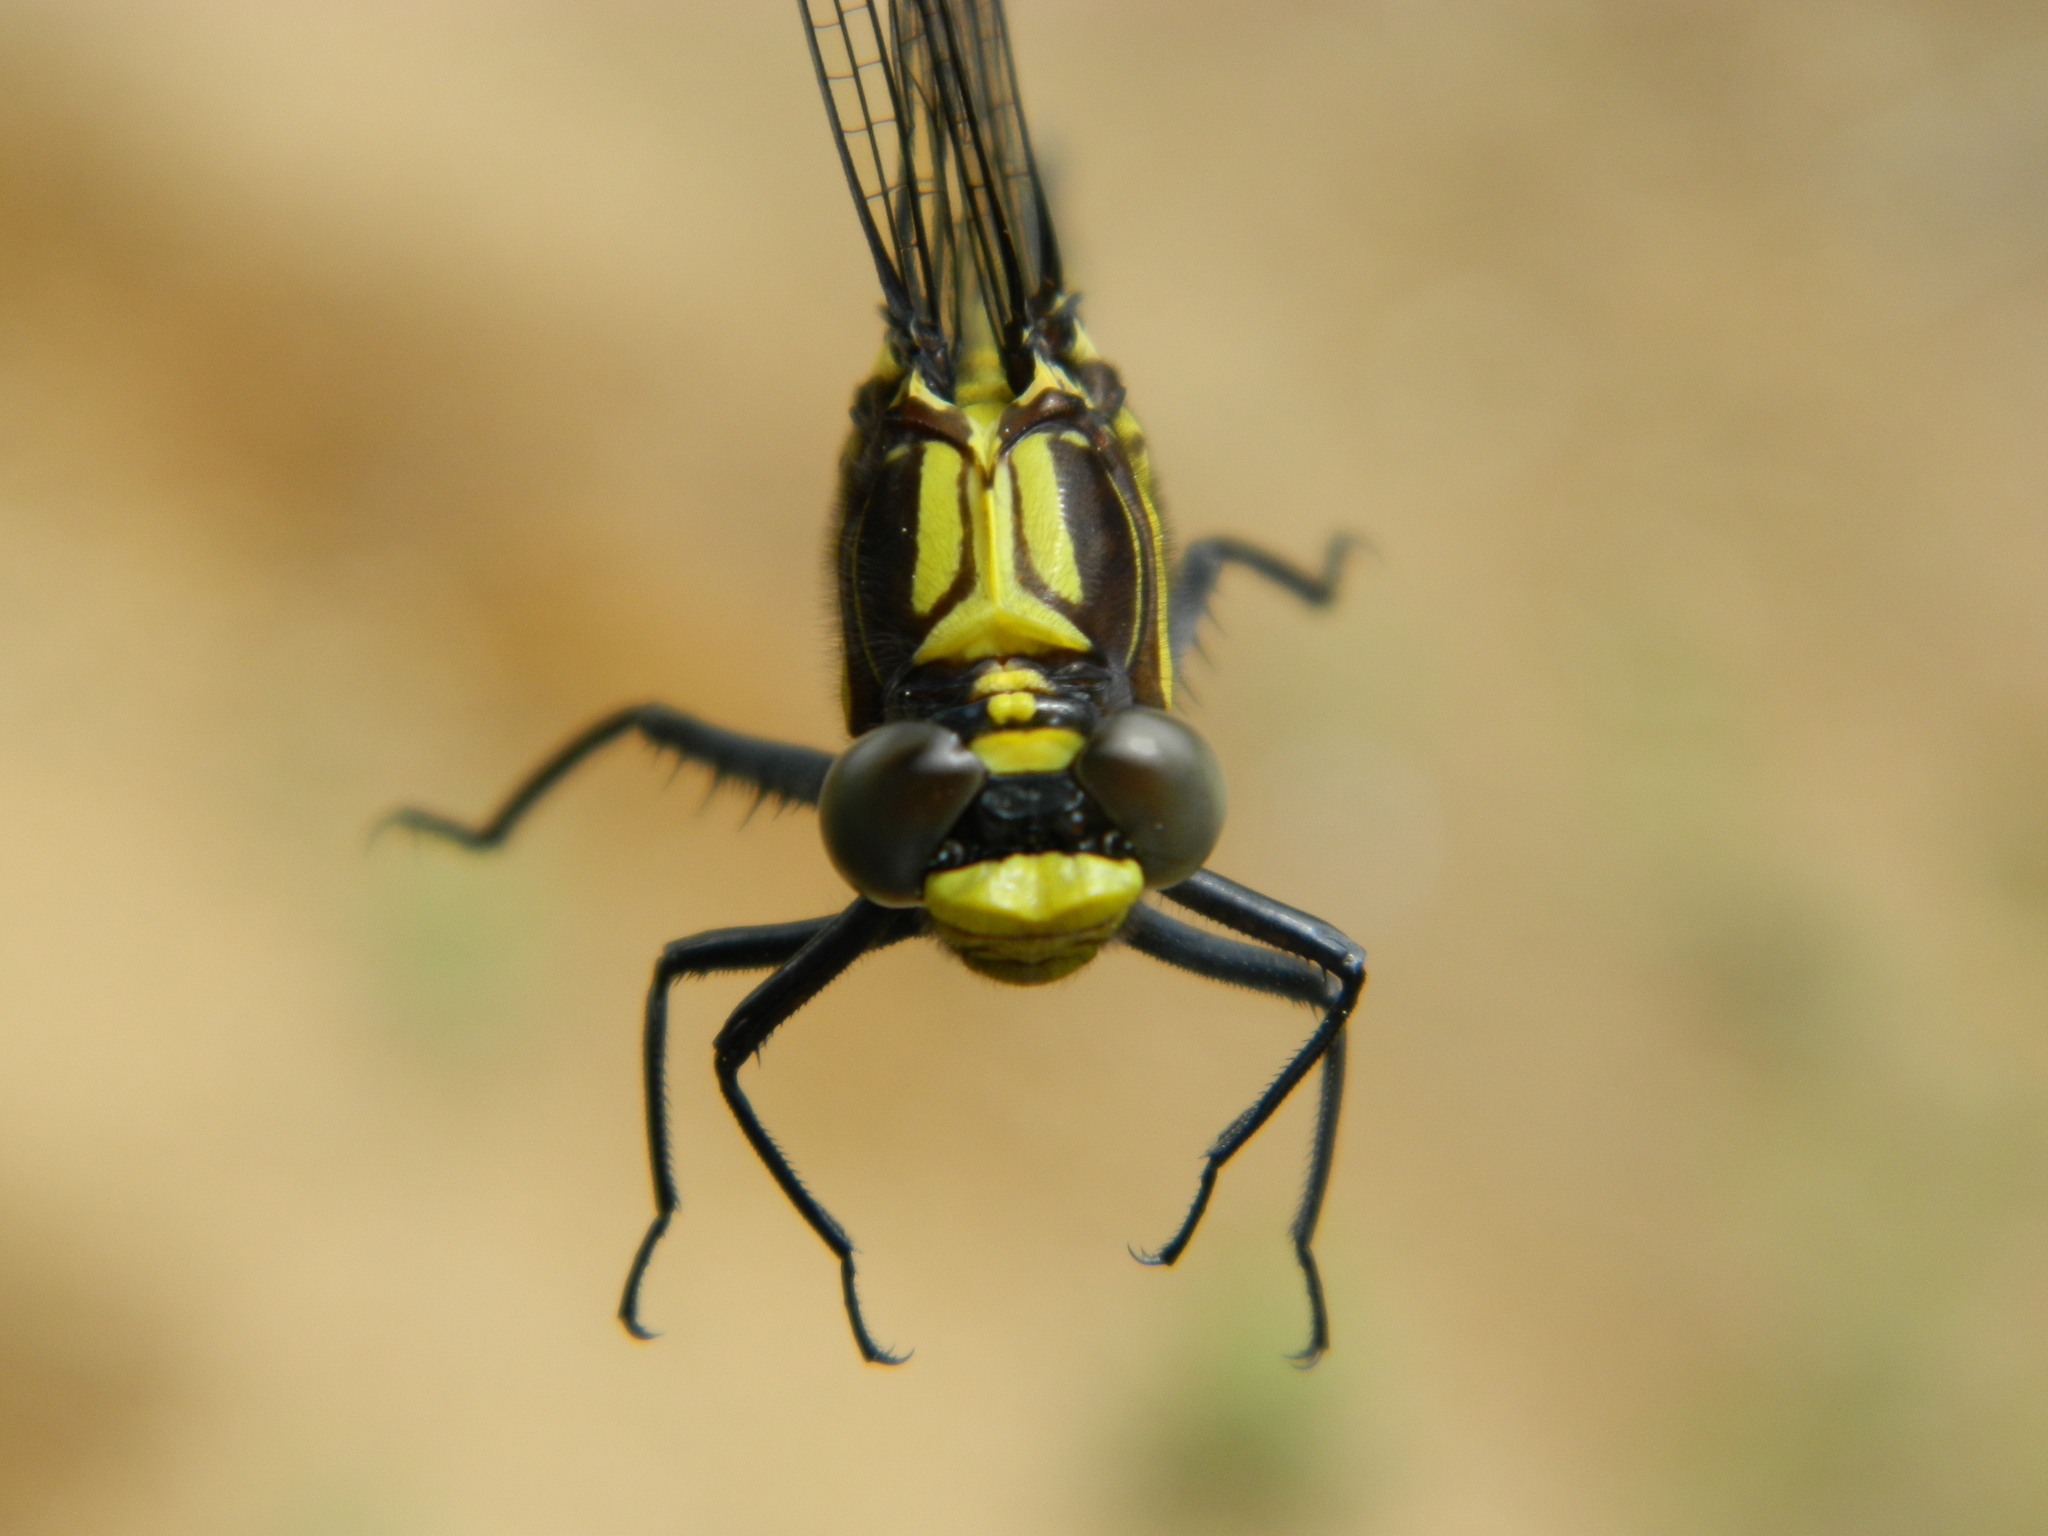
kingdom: Animalia
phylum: Arthropoda
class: Insecta
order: Odonata
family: Gomphidae
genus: Dromogomphus
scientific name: Dromogomphus spinosus
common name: Black-shouldered spinyleg
